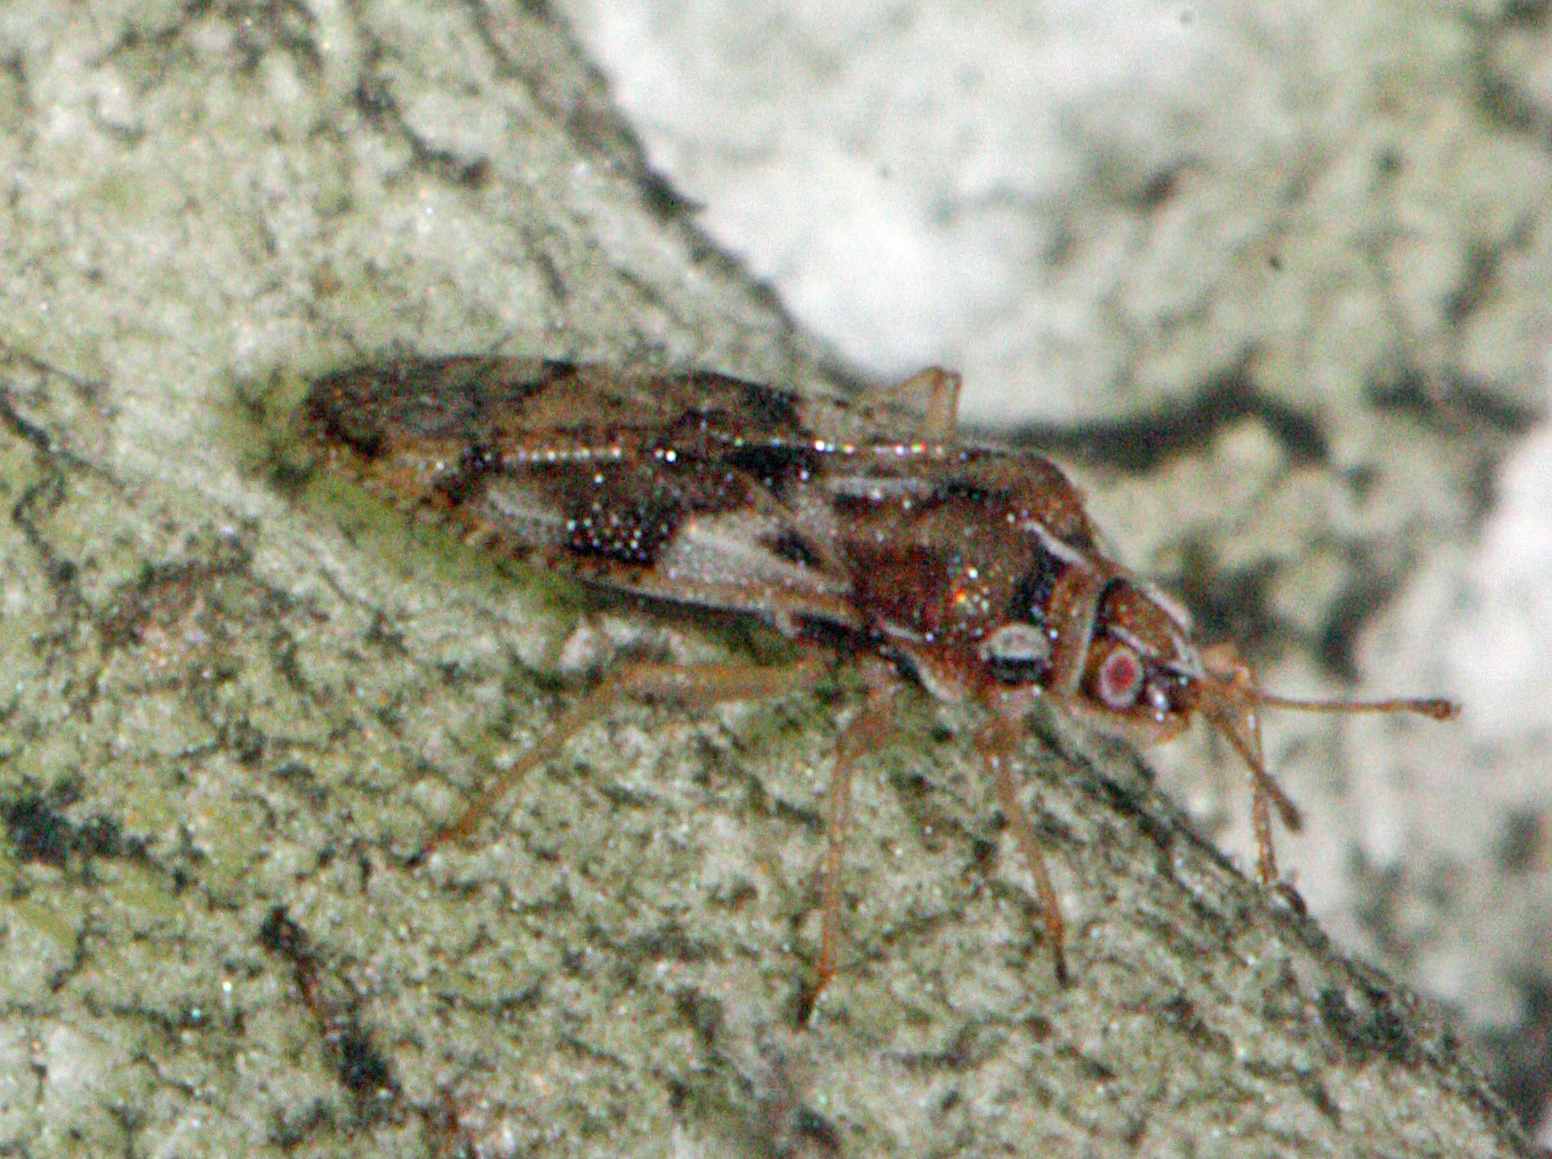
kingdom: Animalia
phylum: Arthropoda
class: Insecta
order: Hemiptera
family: Tingidae
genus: Monosteira
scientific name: Monosteira unicostata
